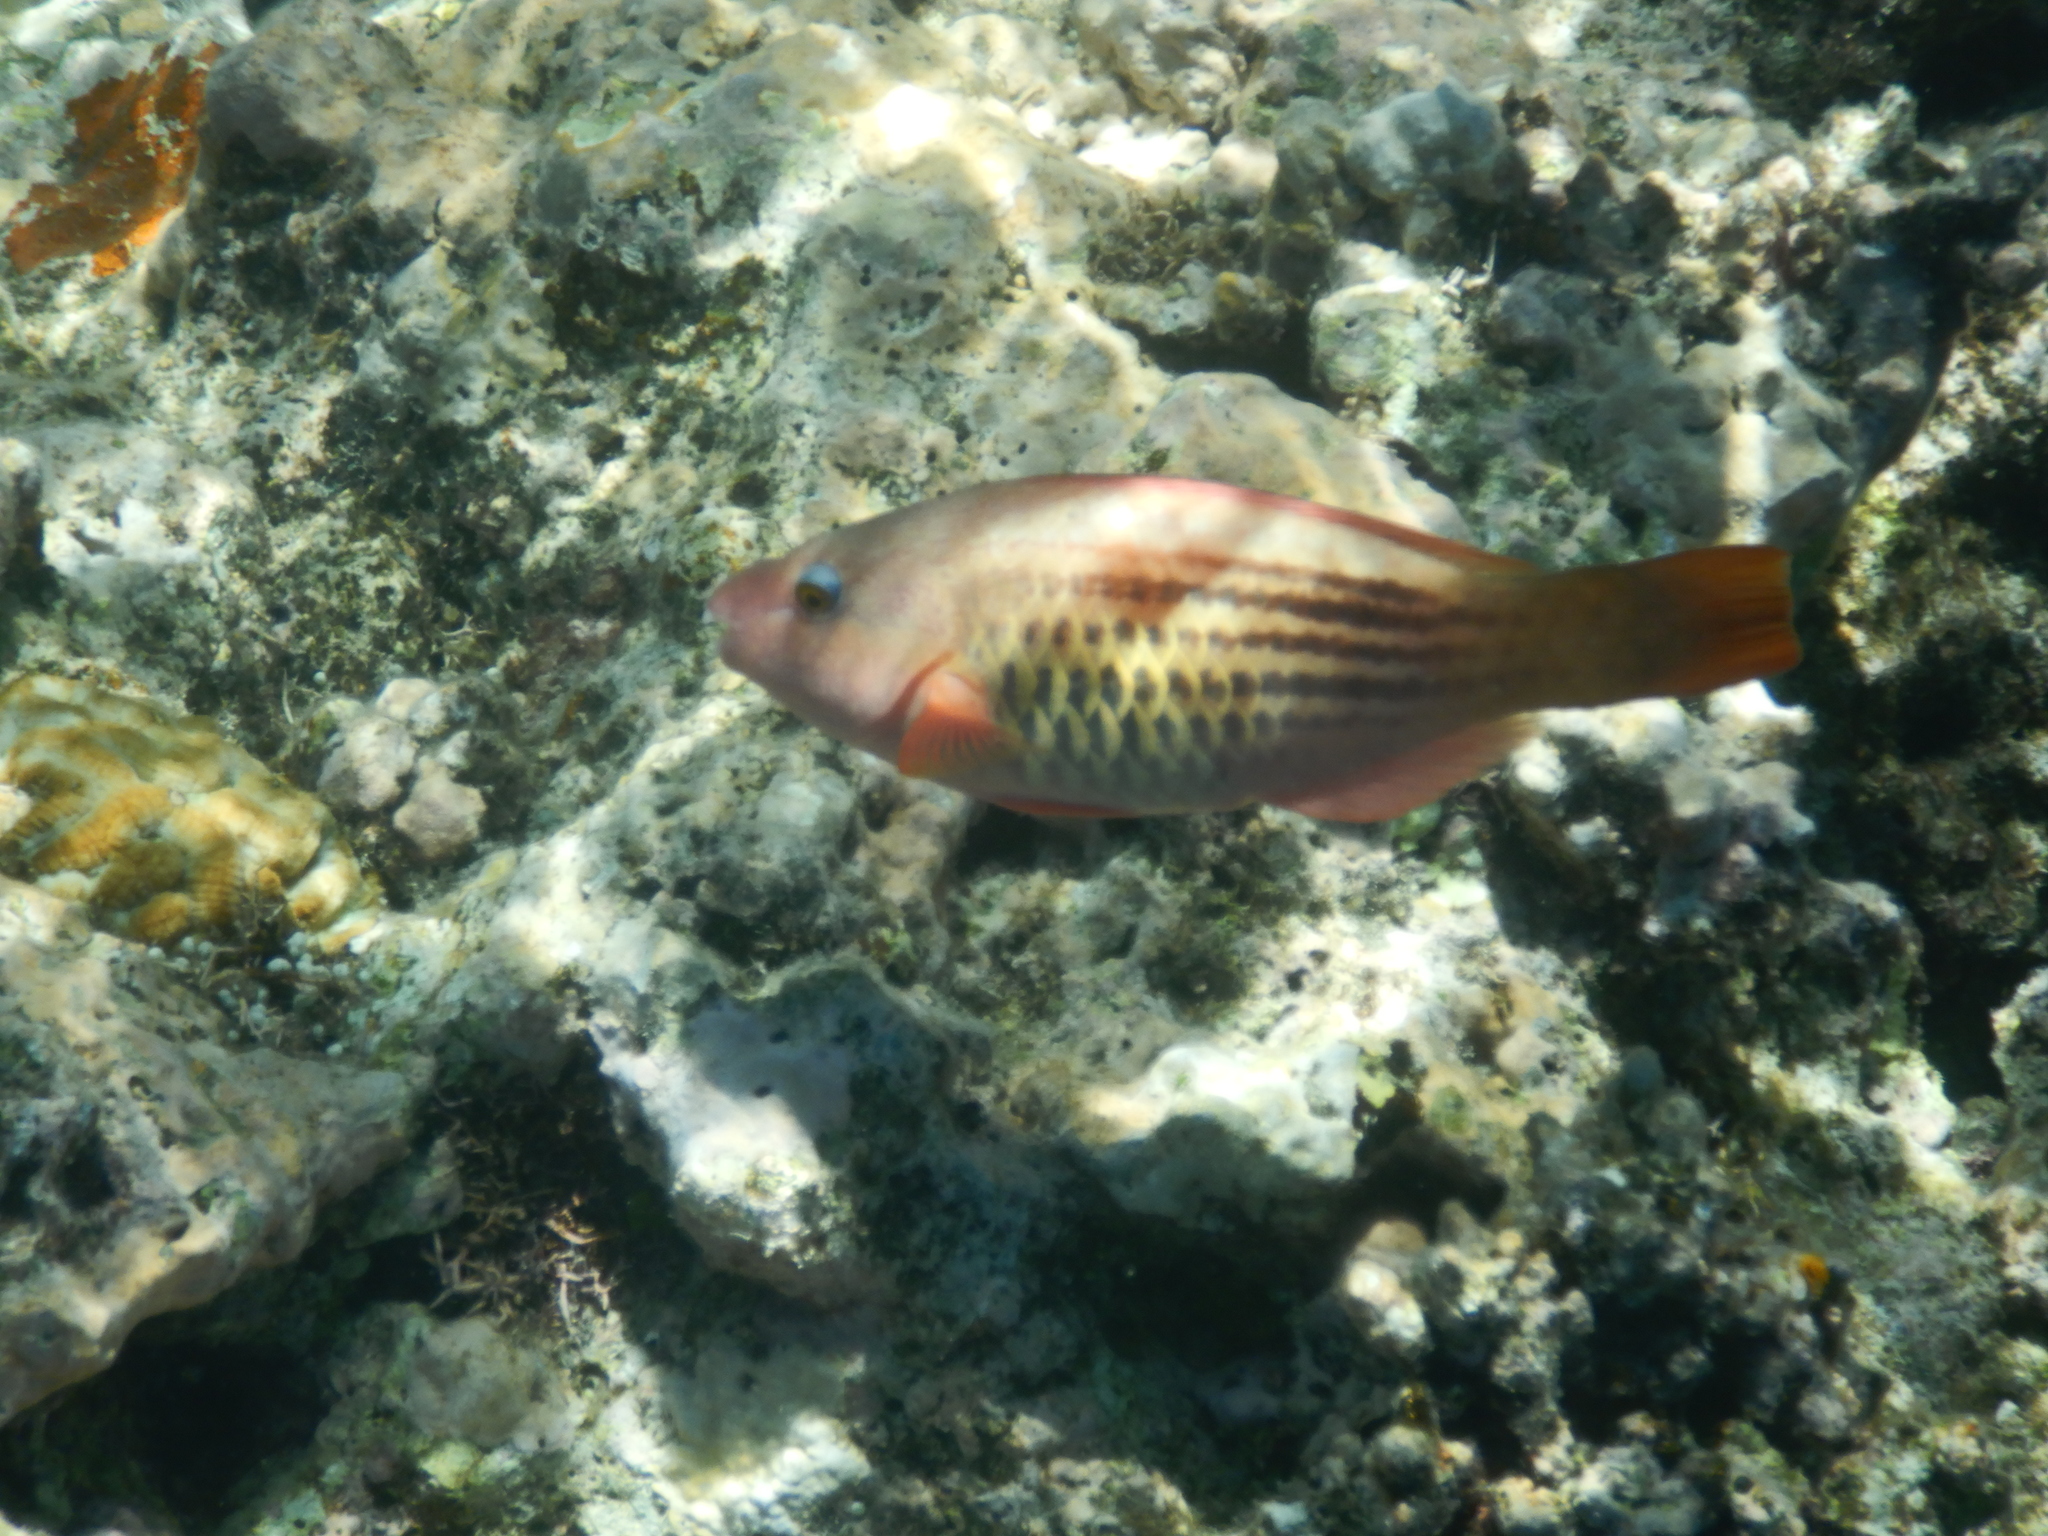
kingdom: Animalia
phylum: Chordata
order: Perciformes
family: Scaridae
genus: Scarus
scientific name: Scarus frenatus
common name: Bridled parrotfish
